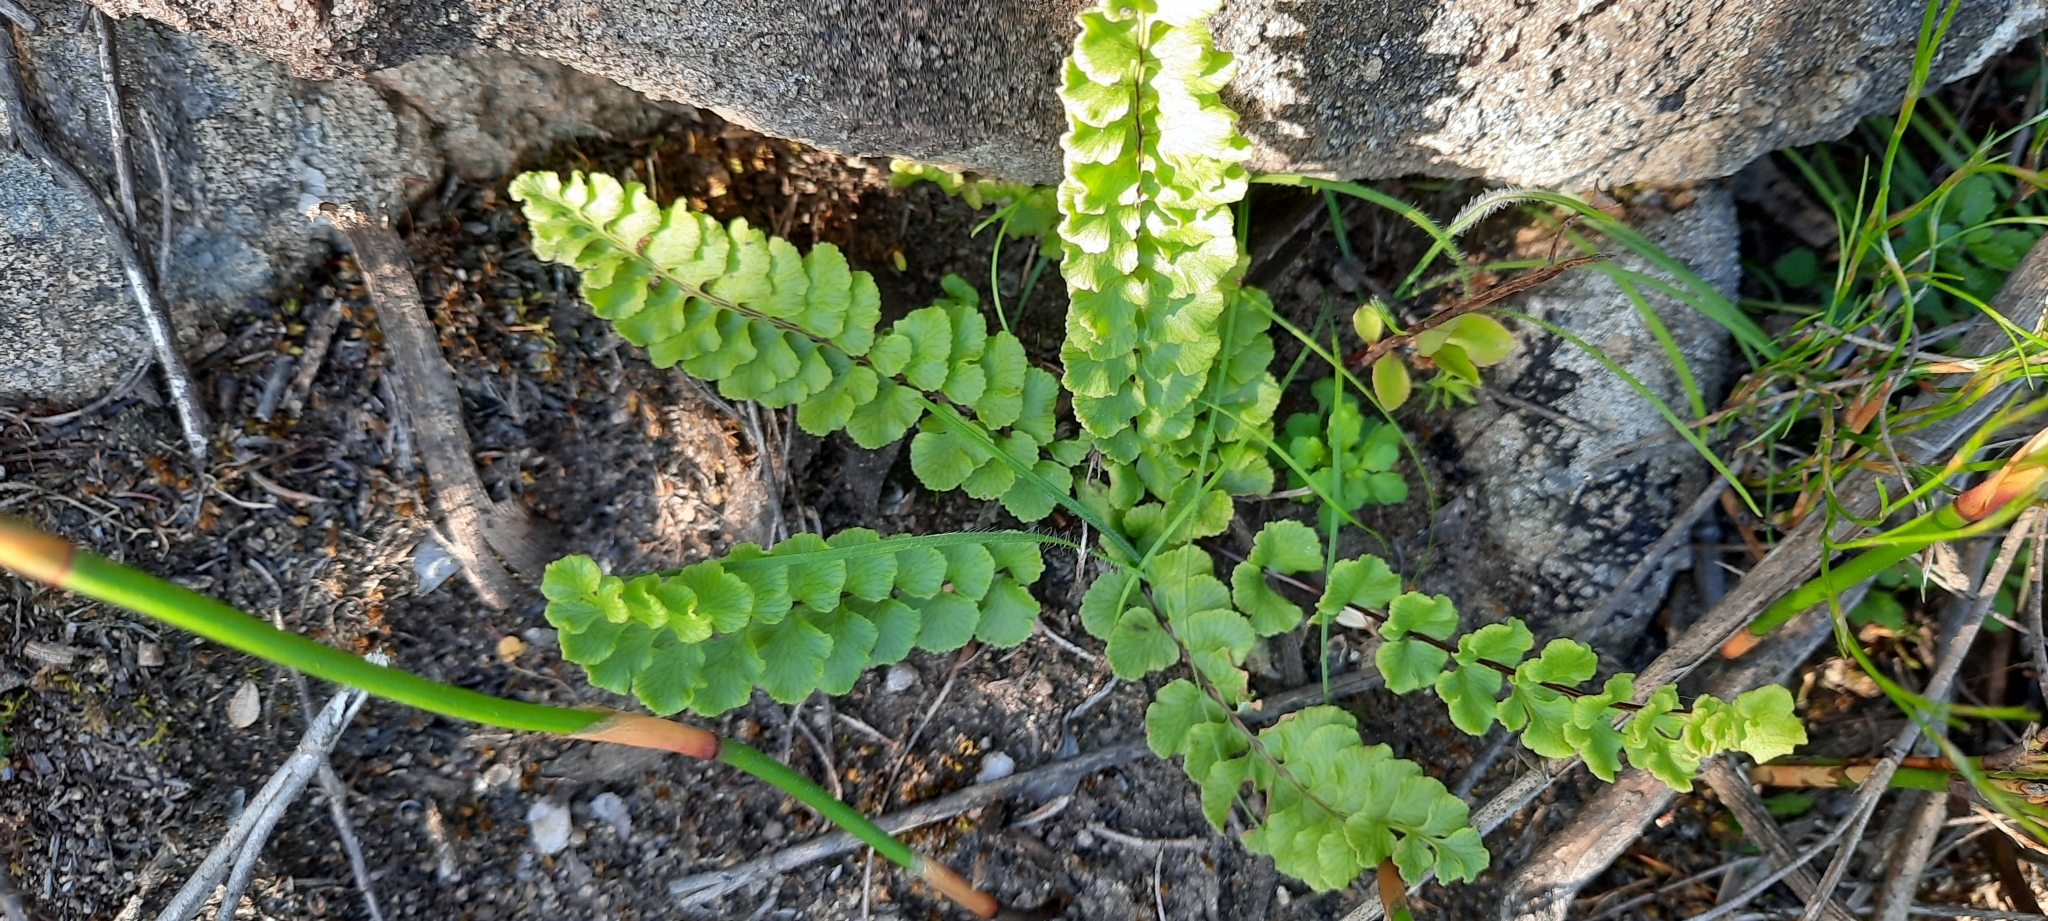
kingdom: Plantae
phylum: Tracheophyta
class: Polypodiopsida
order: Polypodiales
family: Pteridaceae
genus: Cheilanthes
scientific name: Cheilanthes hastata
